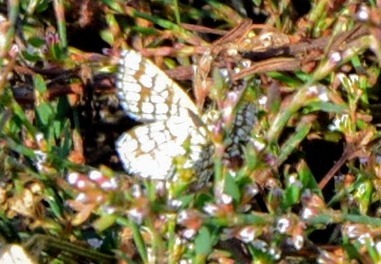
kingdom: Animalia
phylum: Arthropoda
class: Insecta
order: Lepidoptera
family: Geometridae
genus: Chiasmia
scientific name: Chiasmia clathrata
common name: Latticed heath
